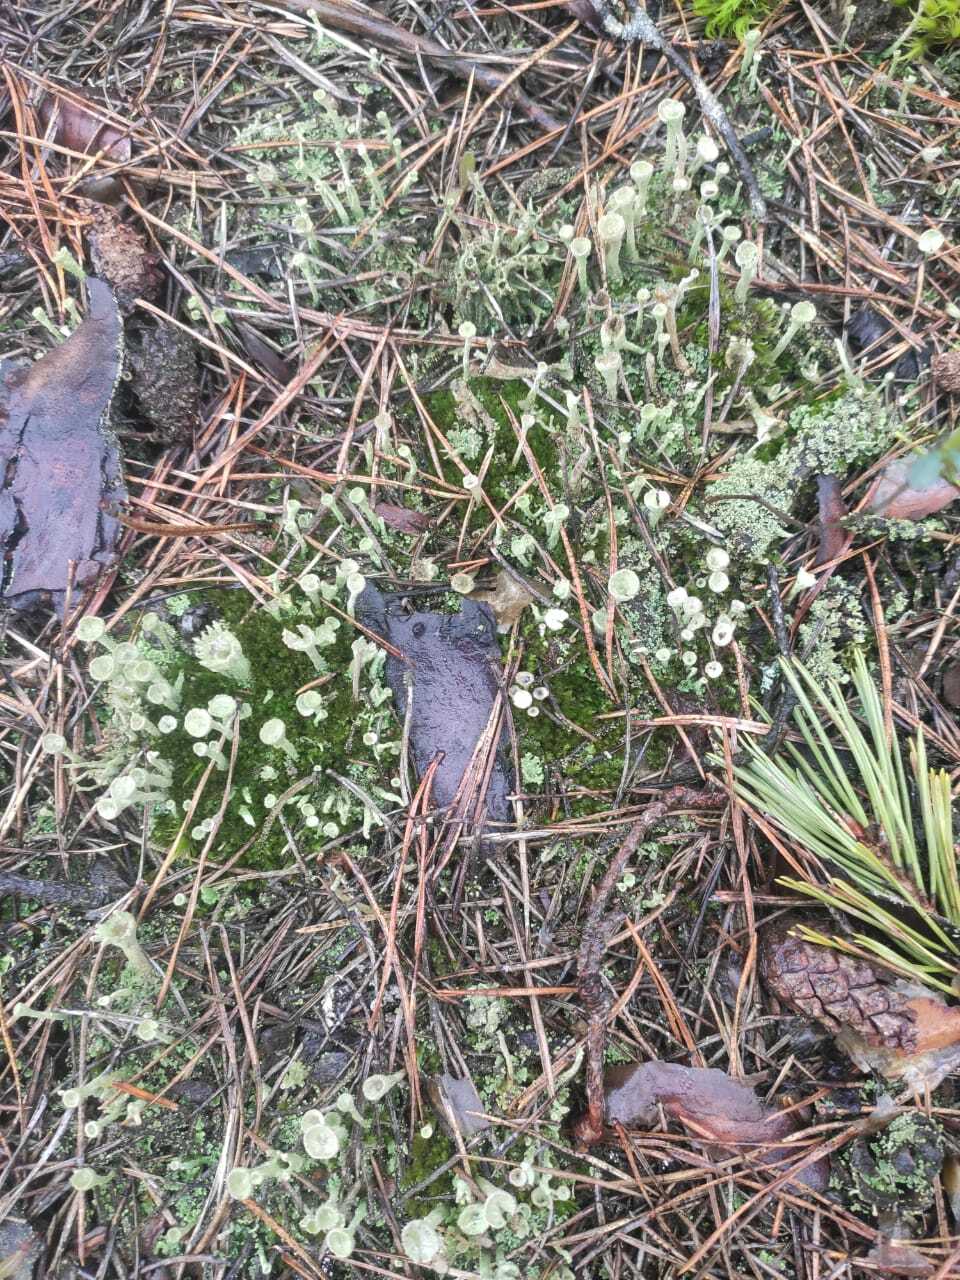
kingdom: Fungi
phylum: Ascomycota
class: Lecanoromycetes
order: Lecanorales
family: Cladoniaceae
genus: Cladonia
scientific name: Cladonia pyxidata
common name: Pebbled pixie cup
